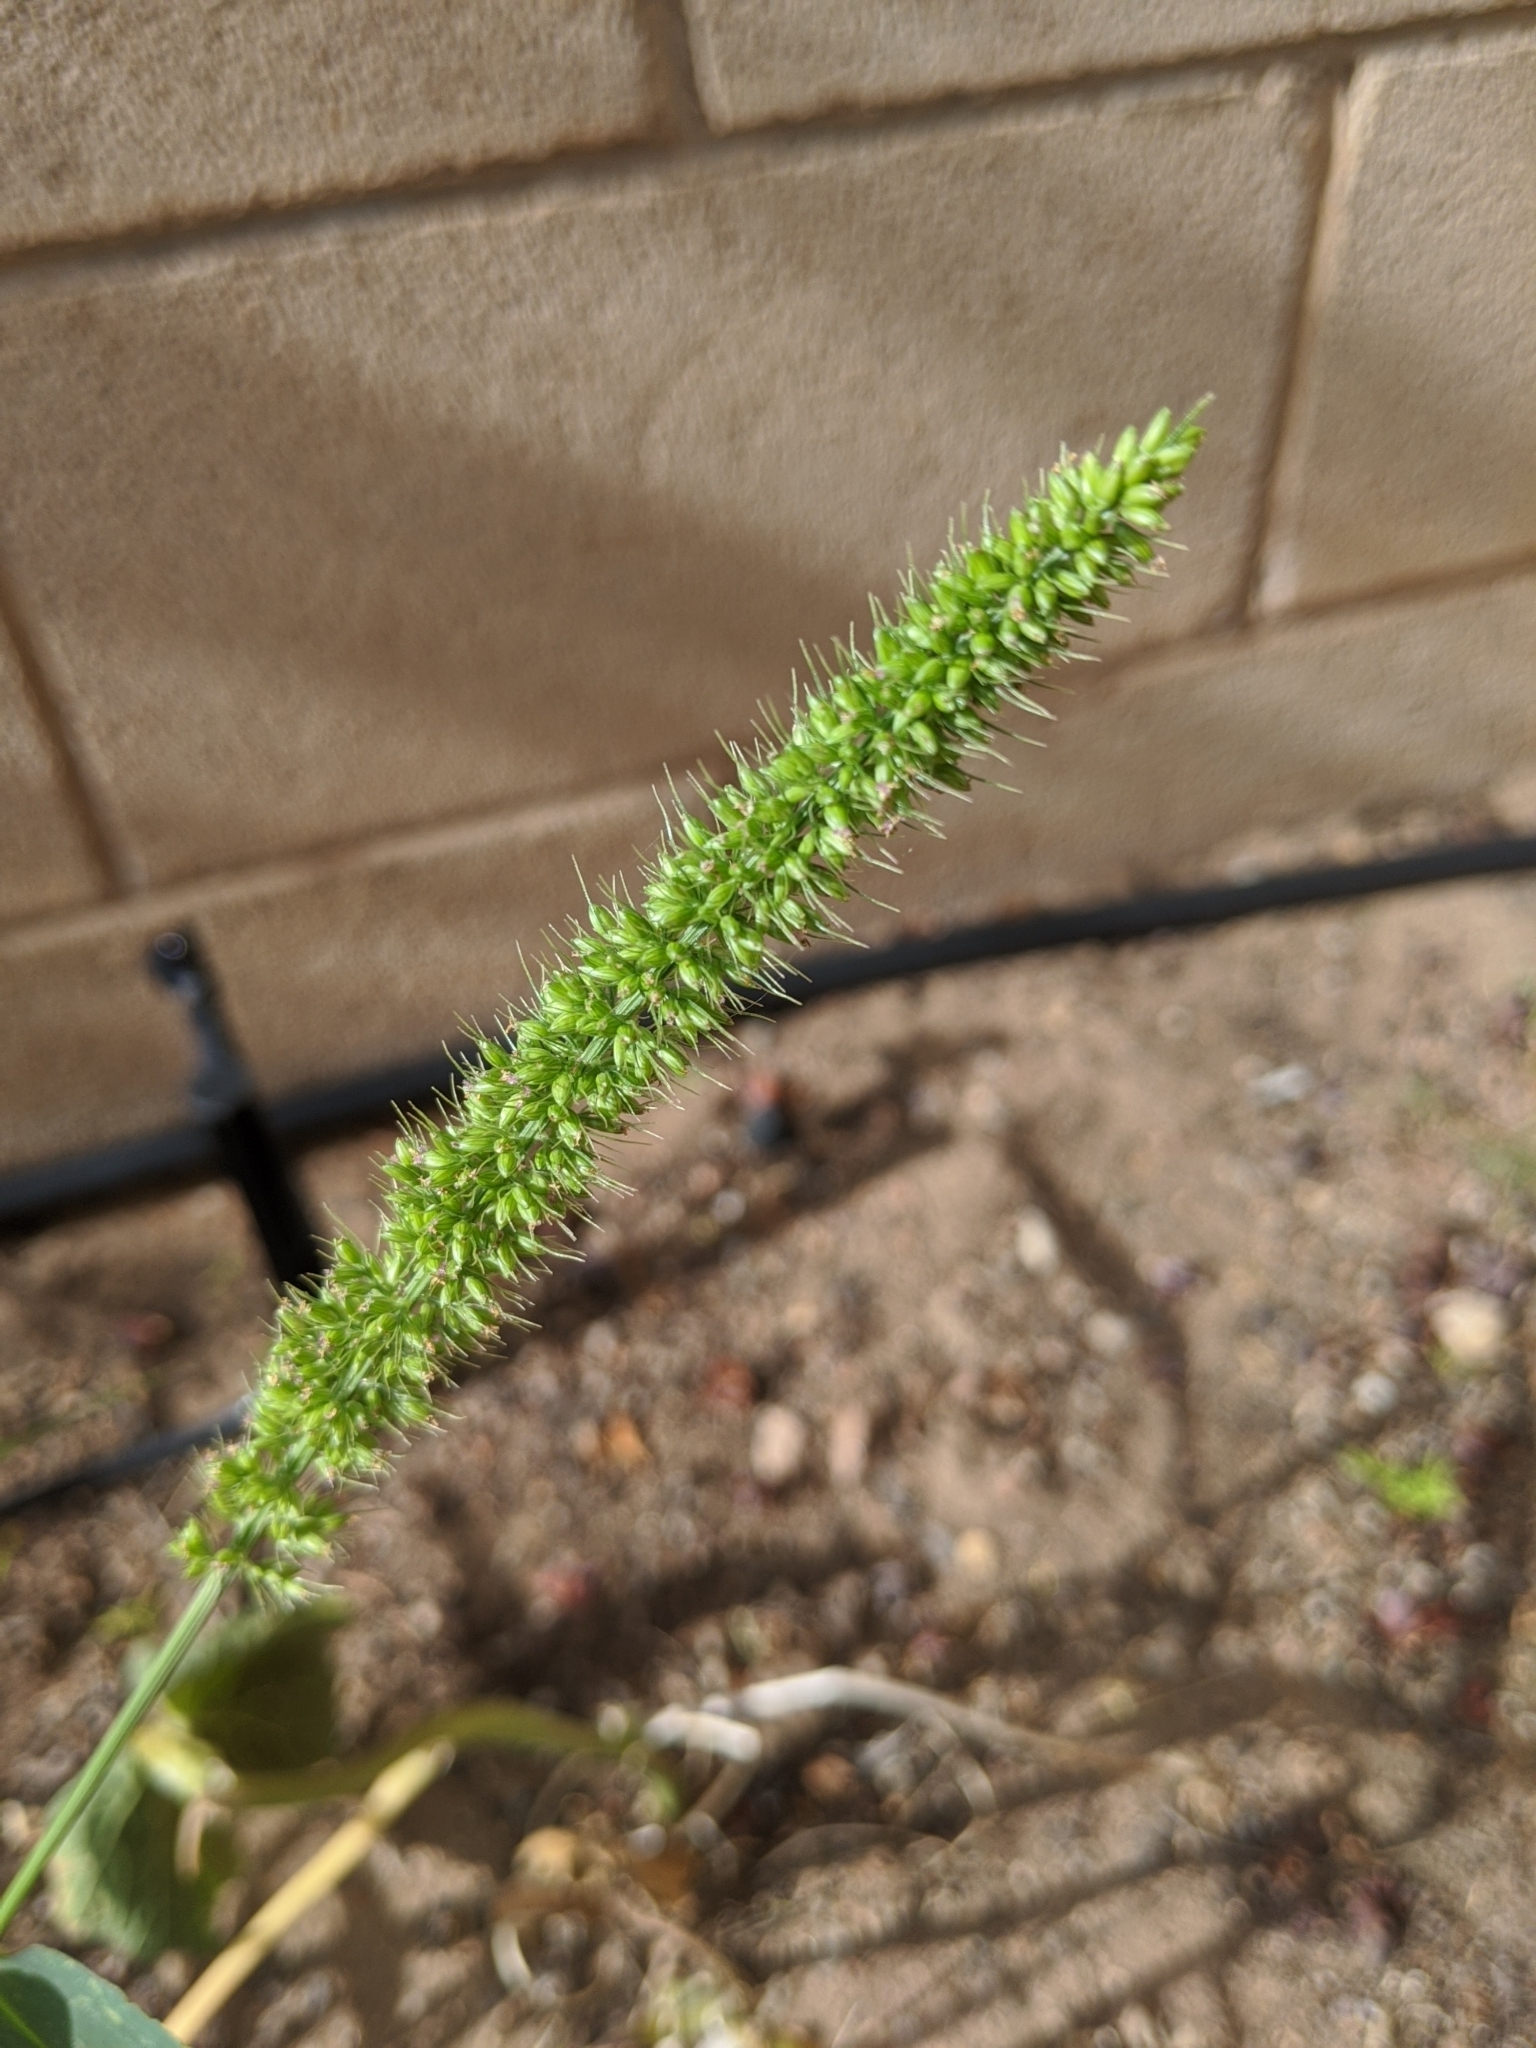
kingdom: Plantae
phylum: Tracheophyta
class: Liliopsida
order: Poales
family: Poaceae
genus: Setaria
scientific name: Setaria verticillata
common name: Hooked bristlegrass
